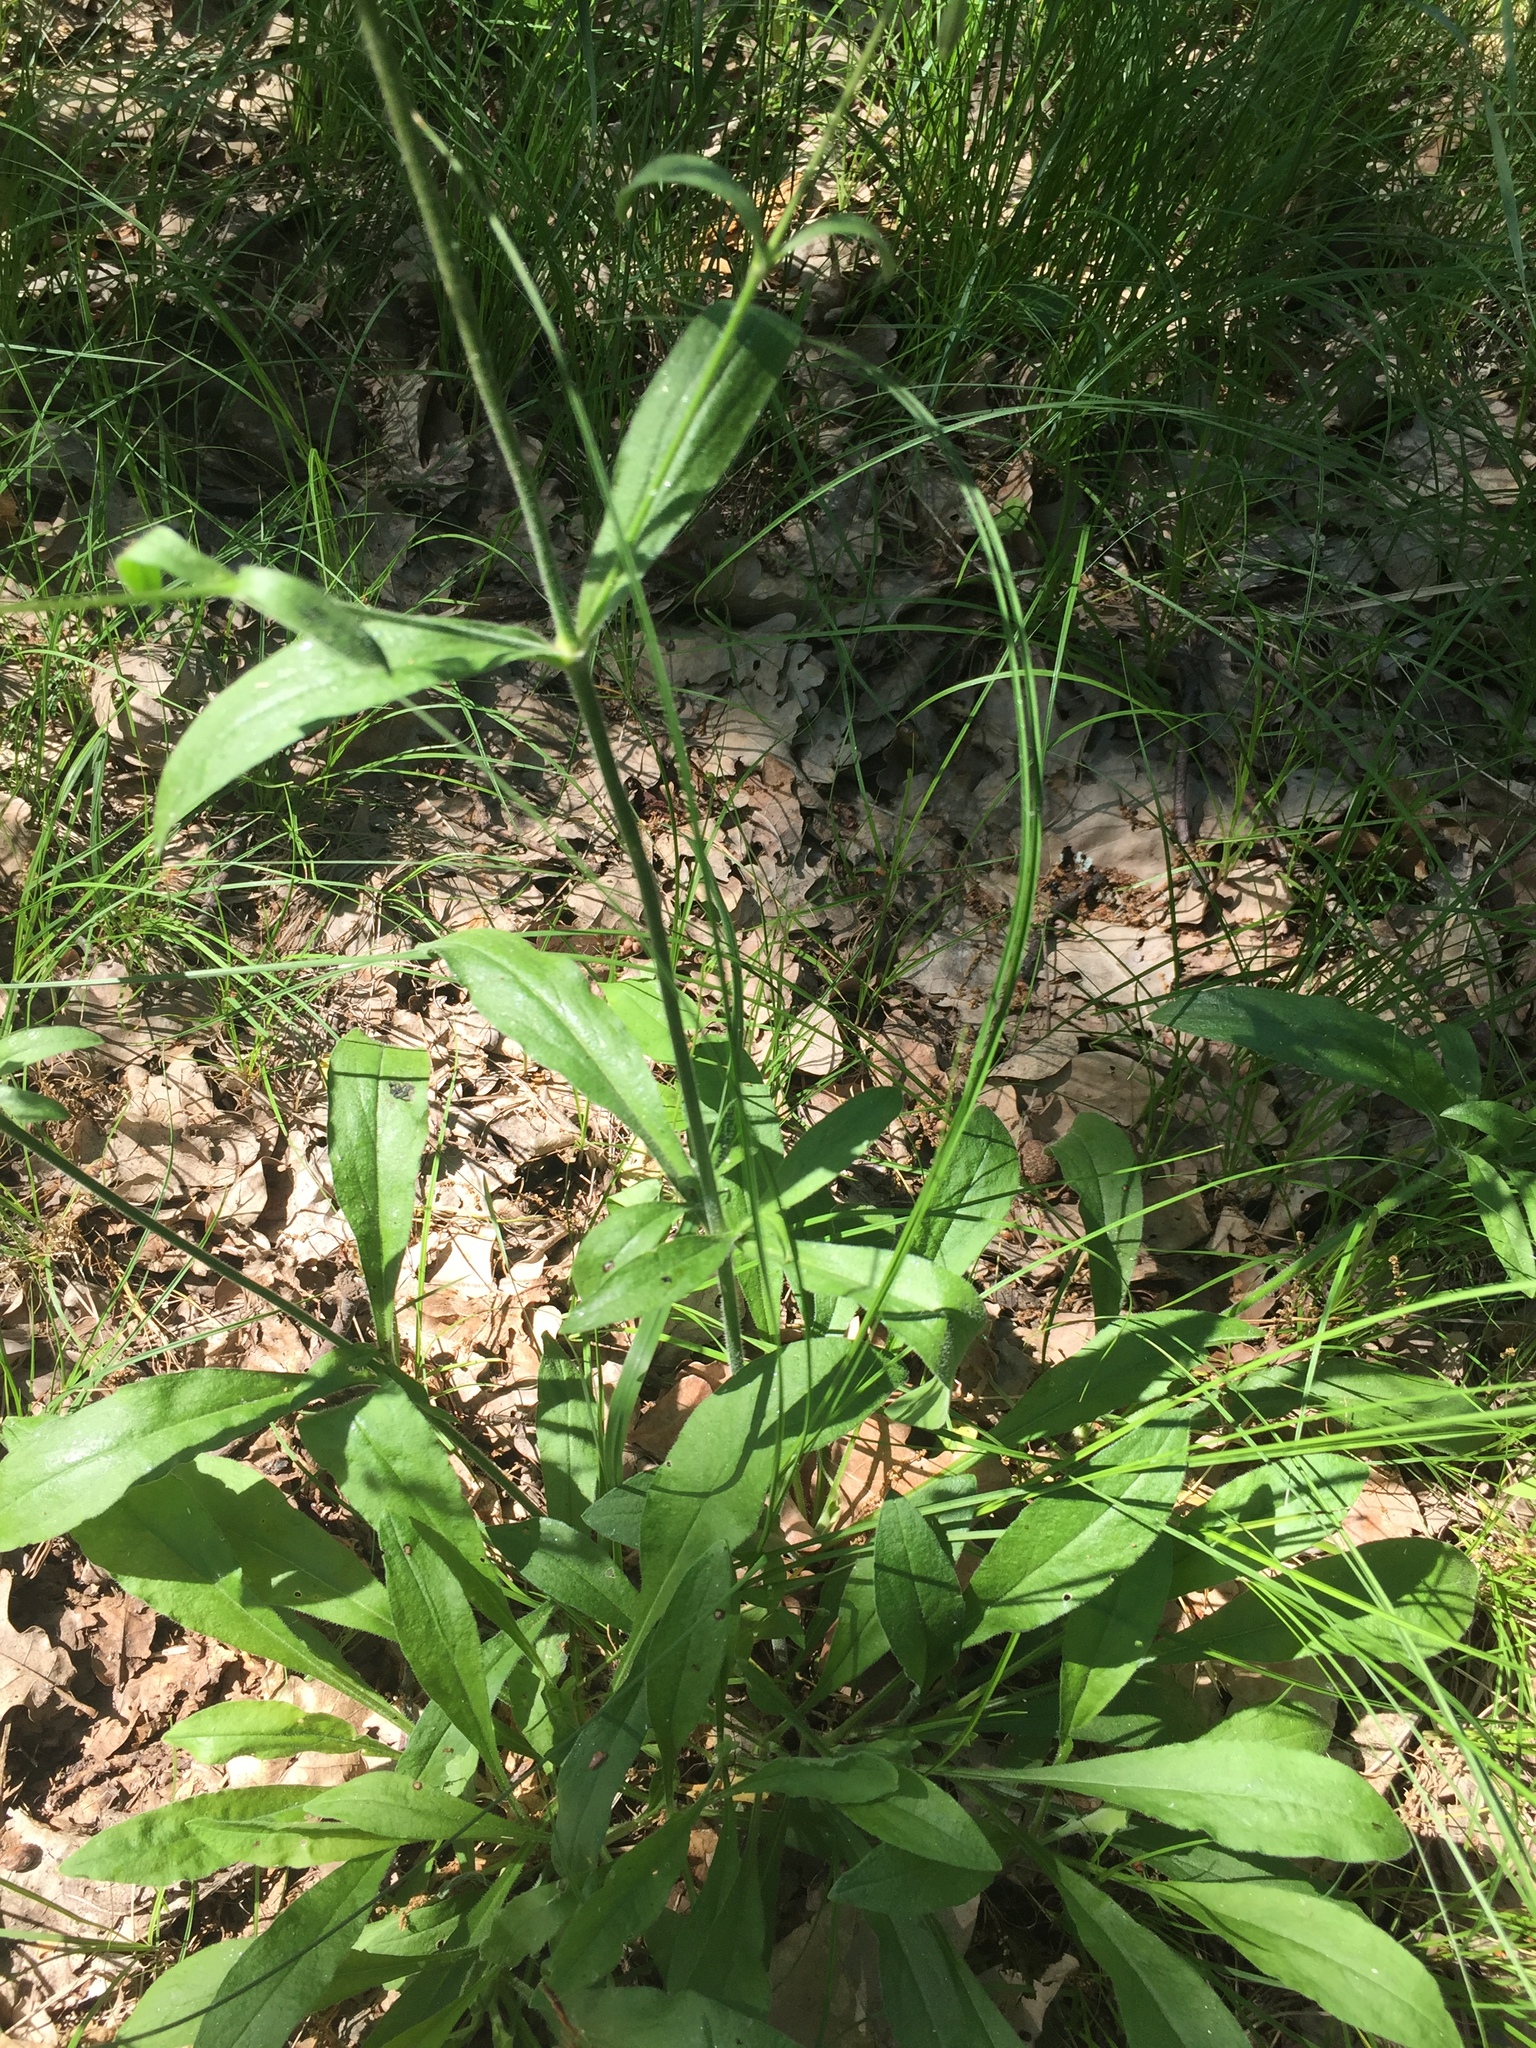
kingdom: Plantae
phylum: Tracheophyta
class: Magnoliopsida
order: Caryophyllales
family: Caryophyllaceae
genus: Silene
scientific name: Silene nutans
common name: Nottingham catchfly
